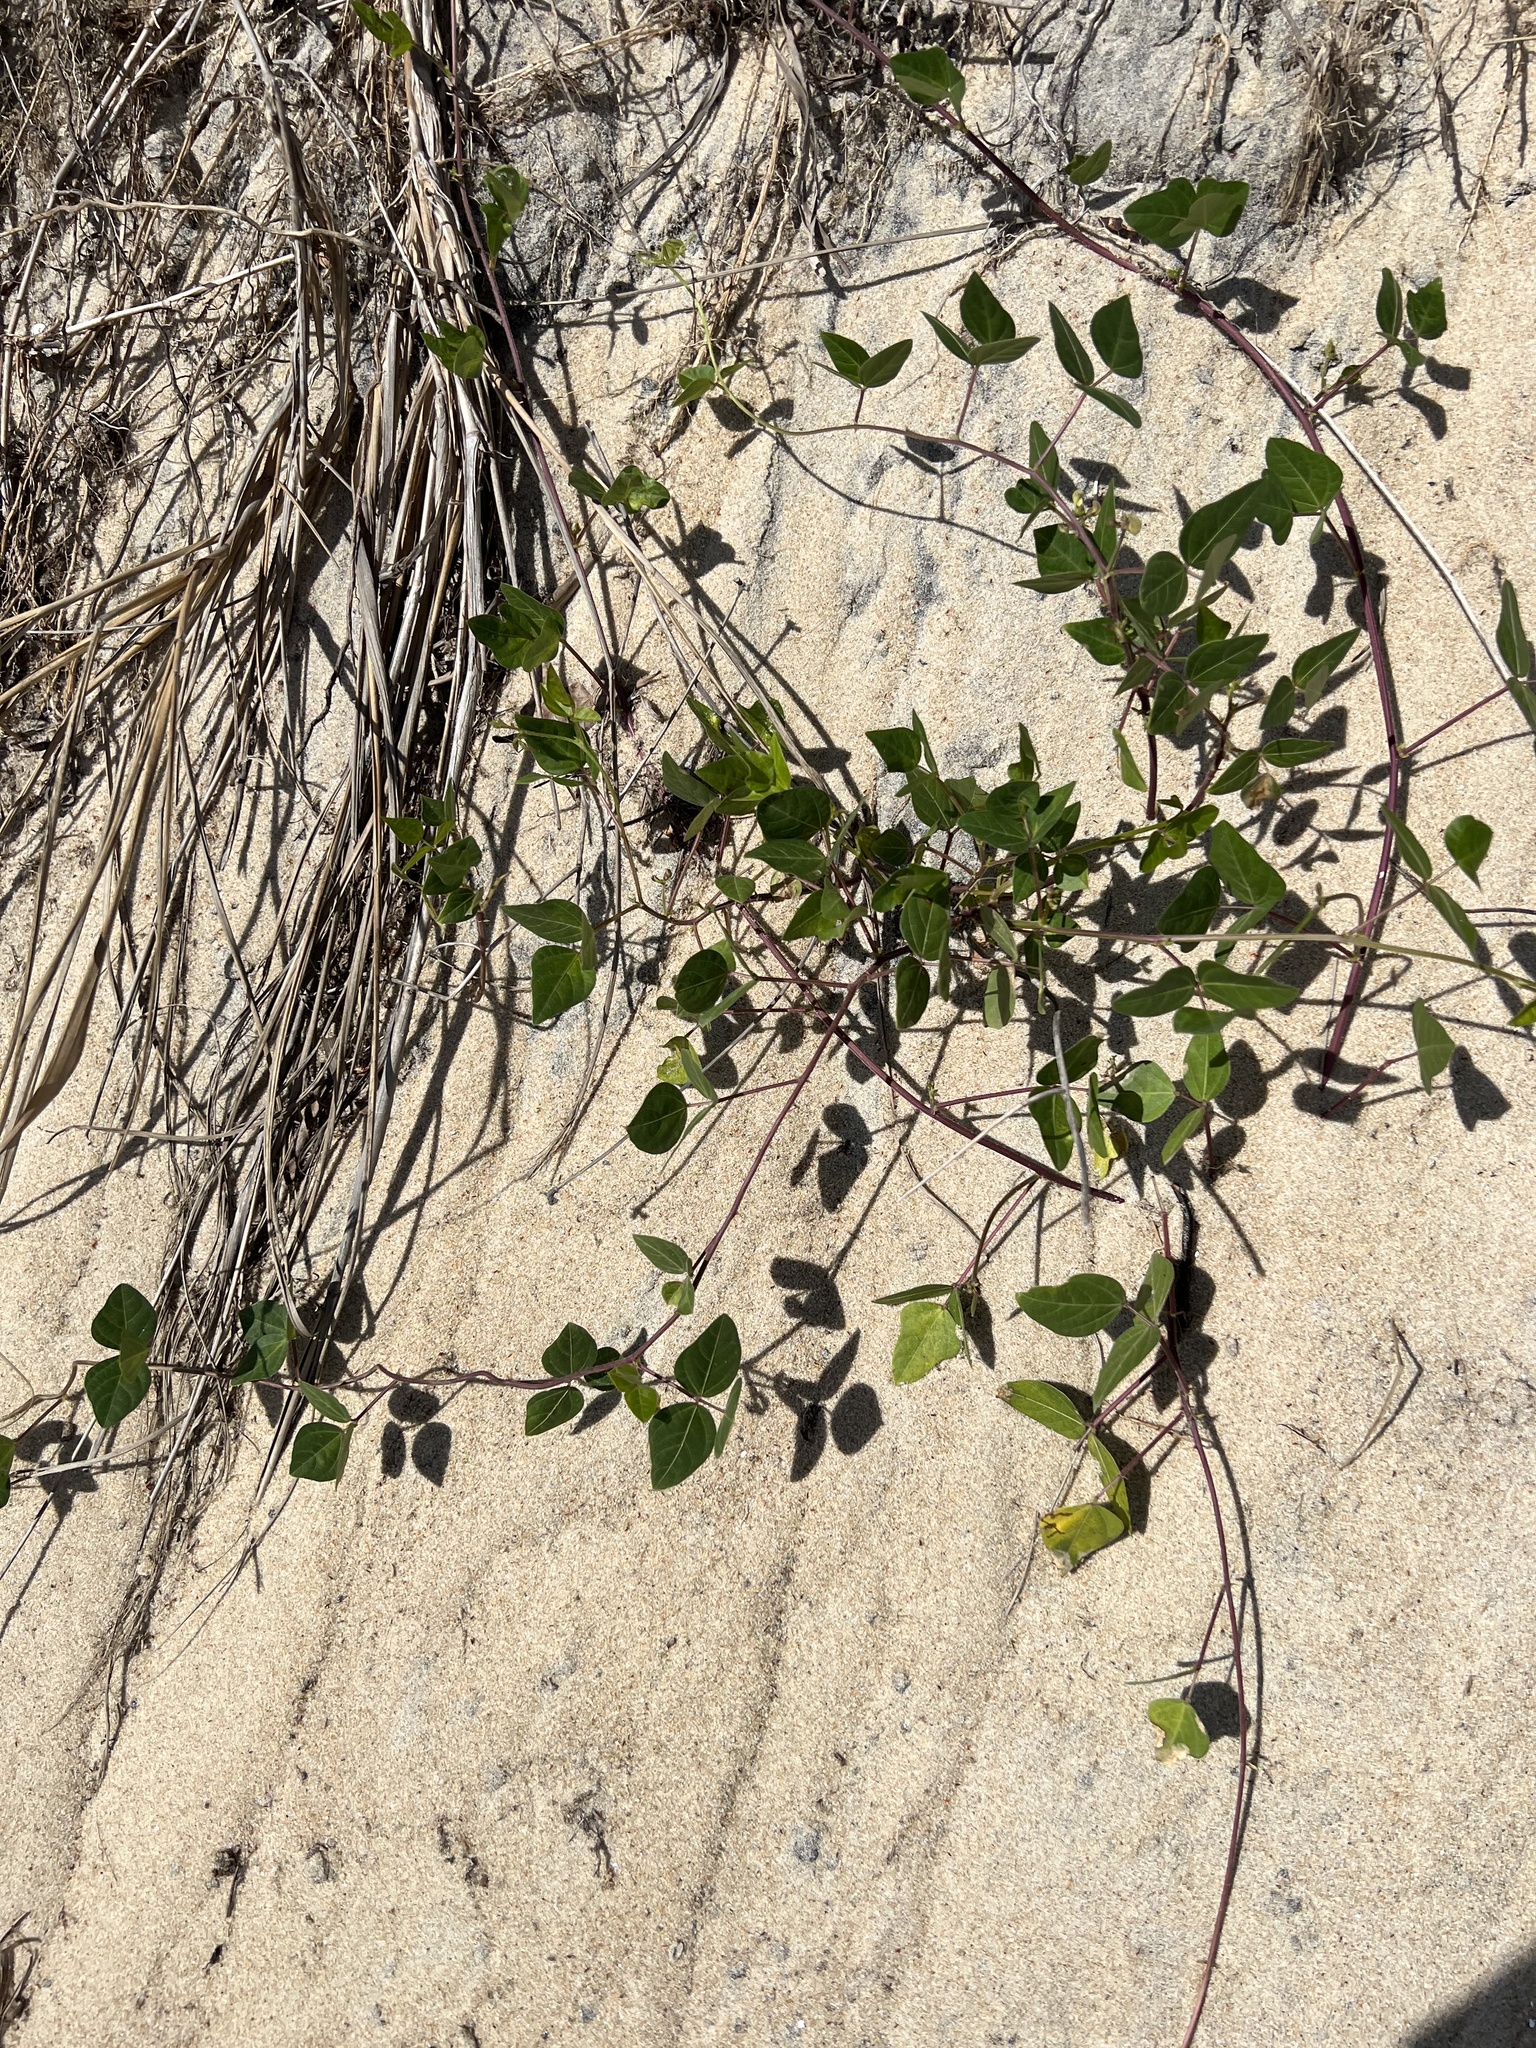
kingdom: Plantae
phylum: Tracheophyta
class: Magnoliopsida
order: Fabales
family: Fabaceae
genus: Strophostyles
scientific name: Strophostyles helvola
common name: Trailing wild bean
